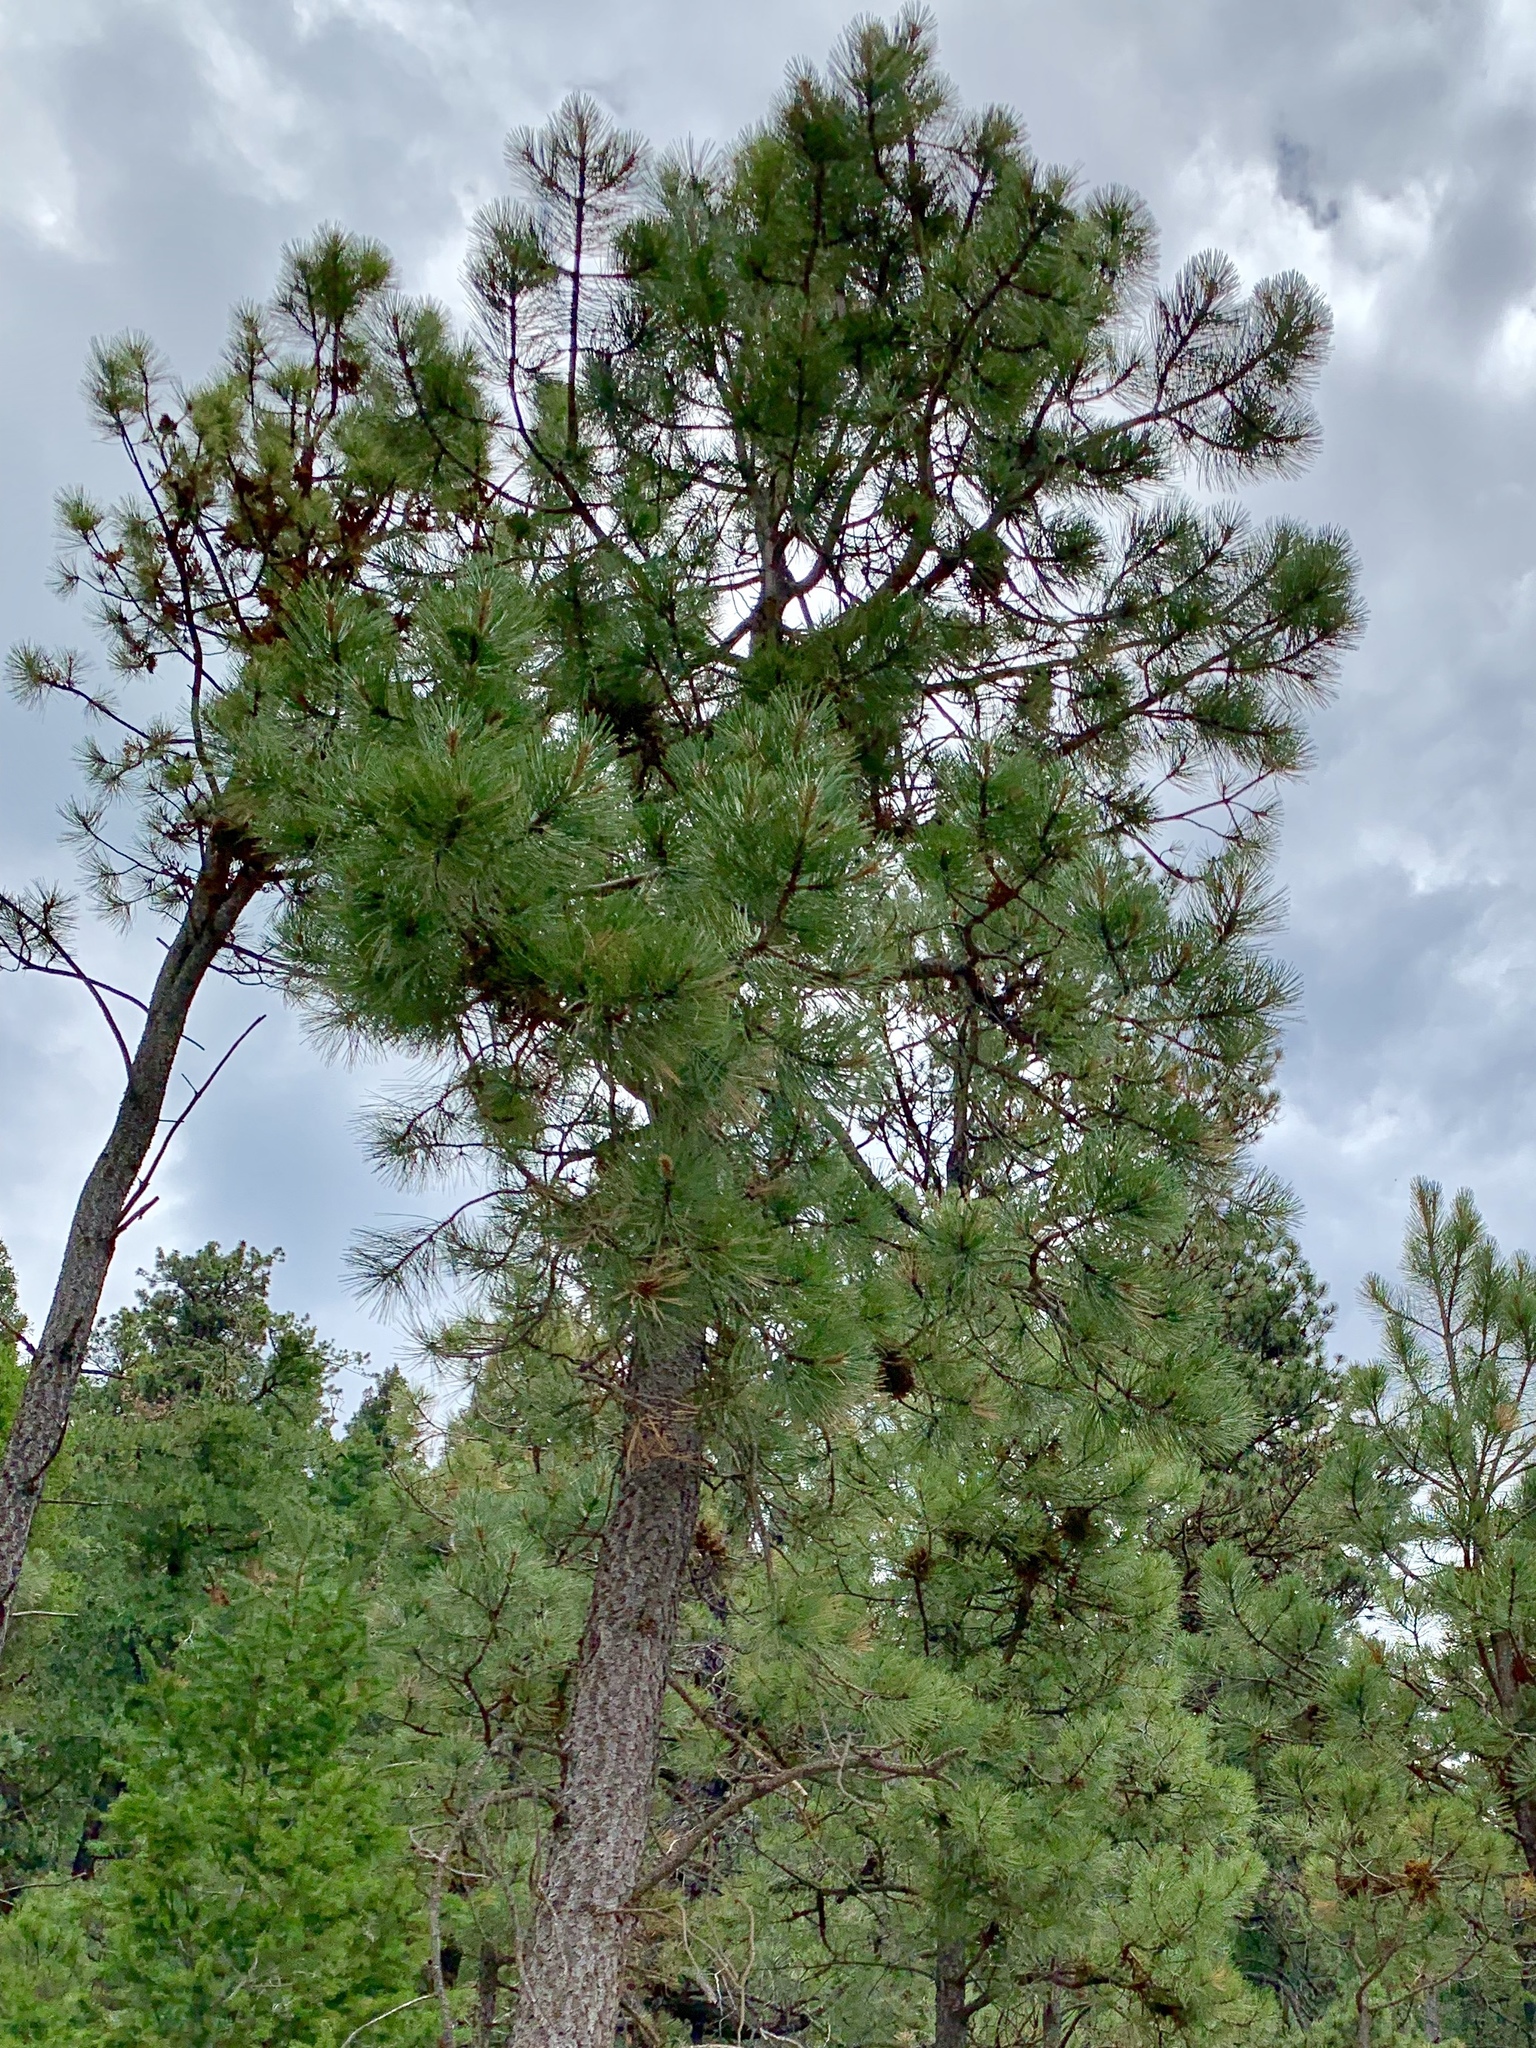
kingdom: Plantae
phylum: Tracheophyta
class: Pinopsida
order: Pinales
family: Pinaceae
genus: Pinus
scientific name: Pinus ponderosa
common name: Western yellow-pine
